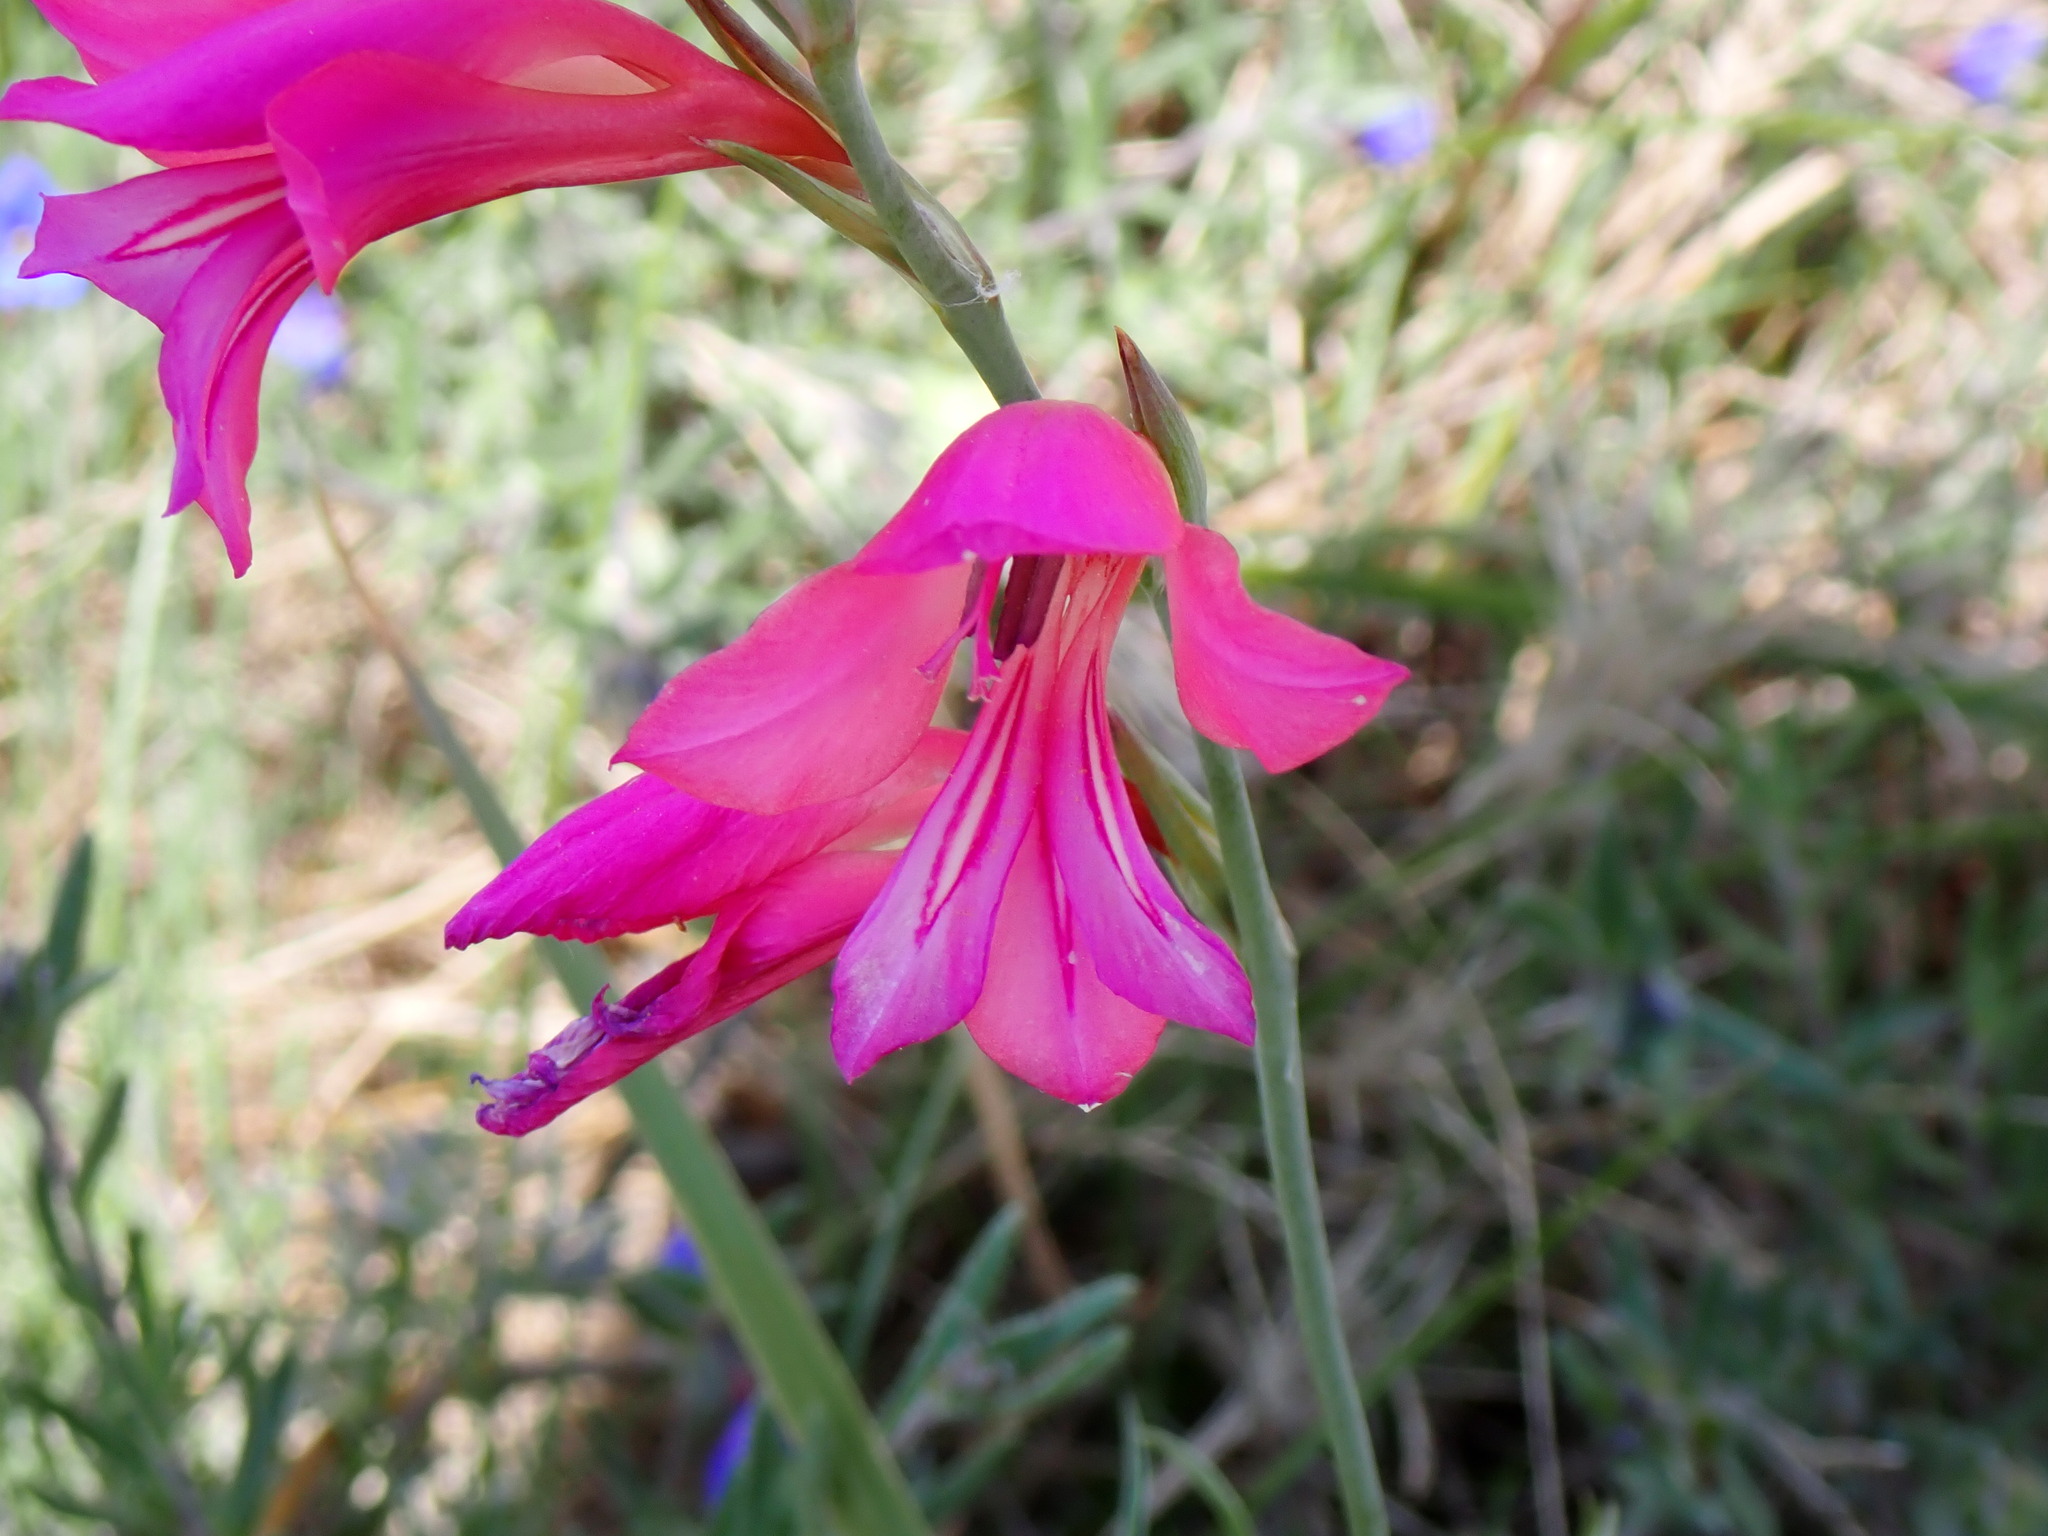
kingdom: Plantae
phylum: Tracheophyta
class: Liliopsida
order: Asparagales
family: Iridaceae
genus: Gladiolus
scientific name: Gladiolus dubius
